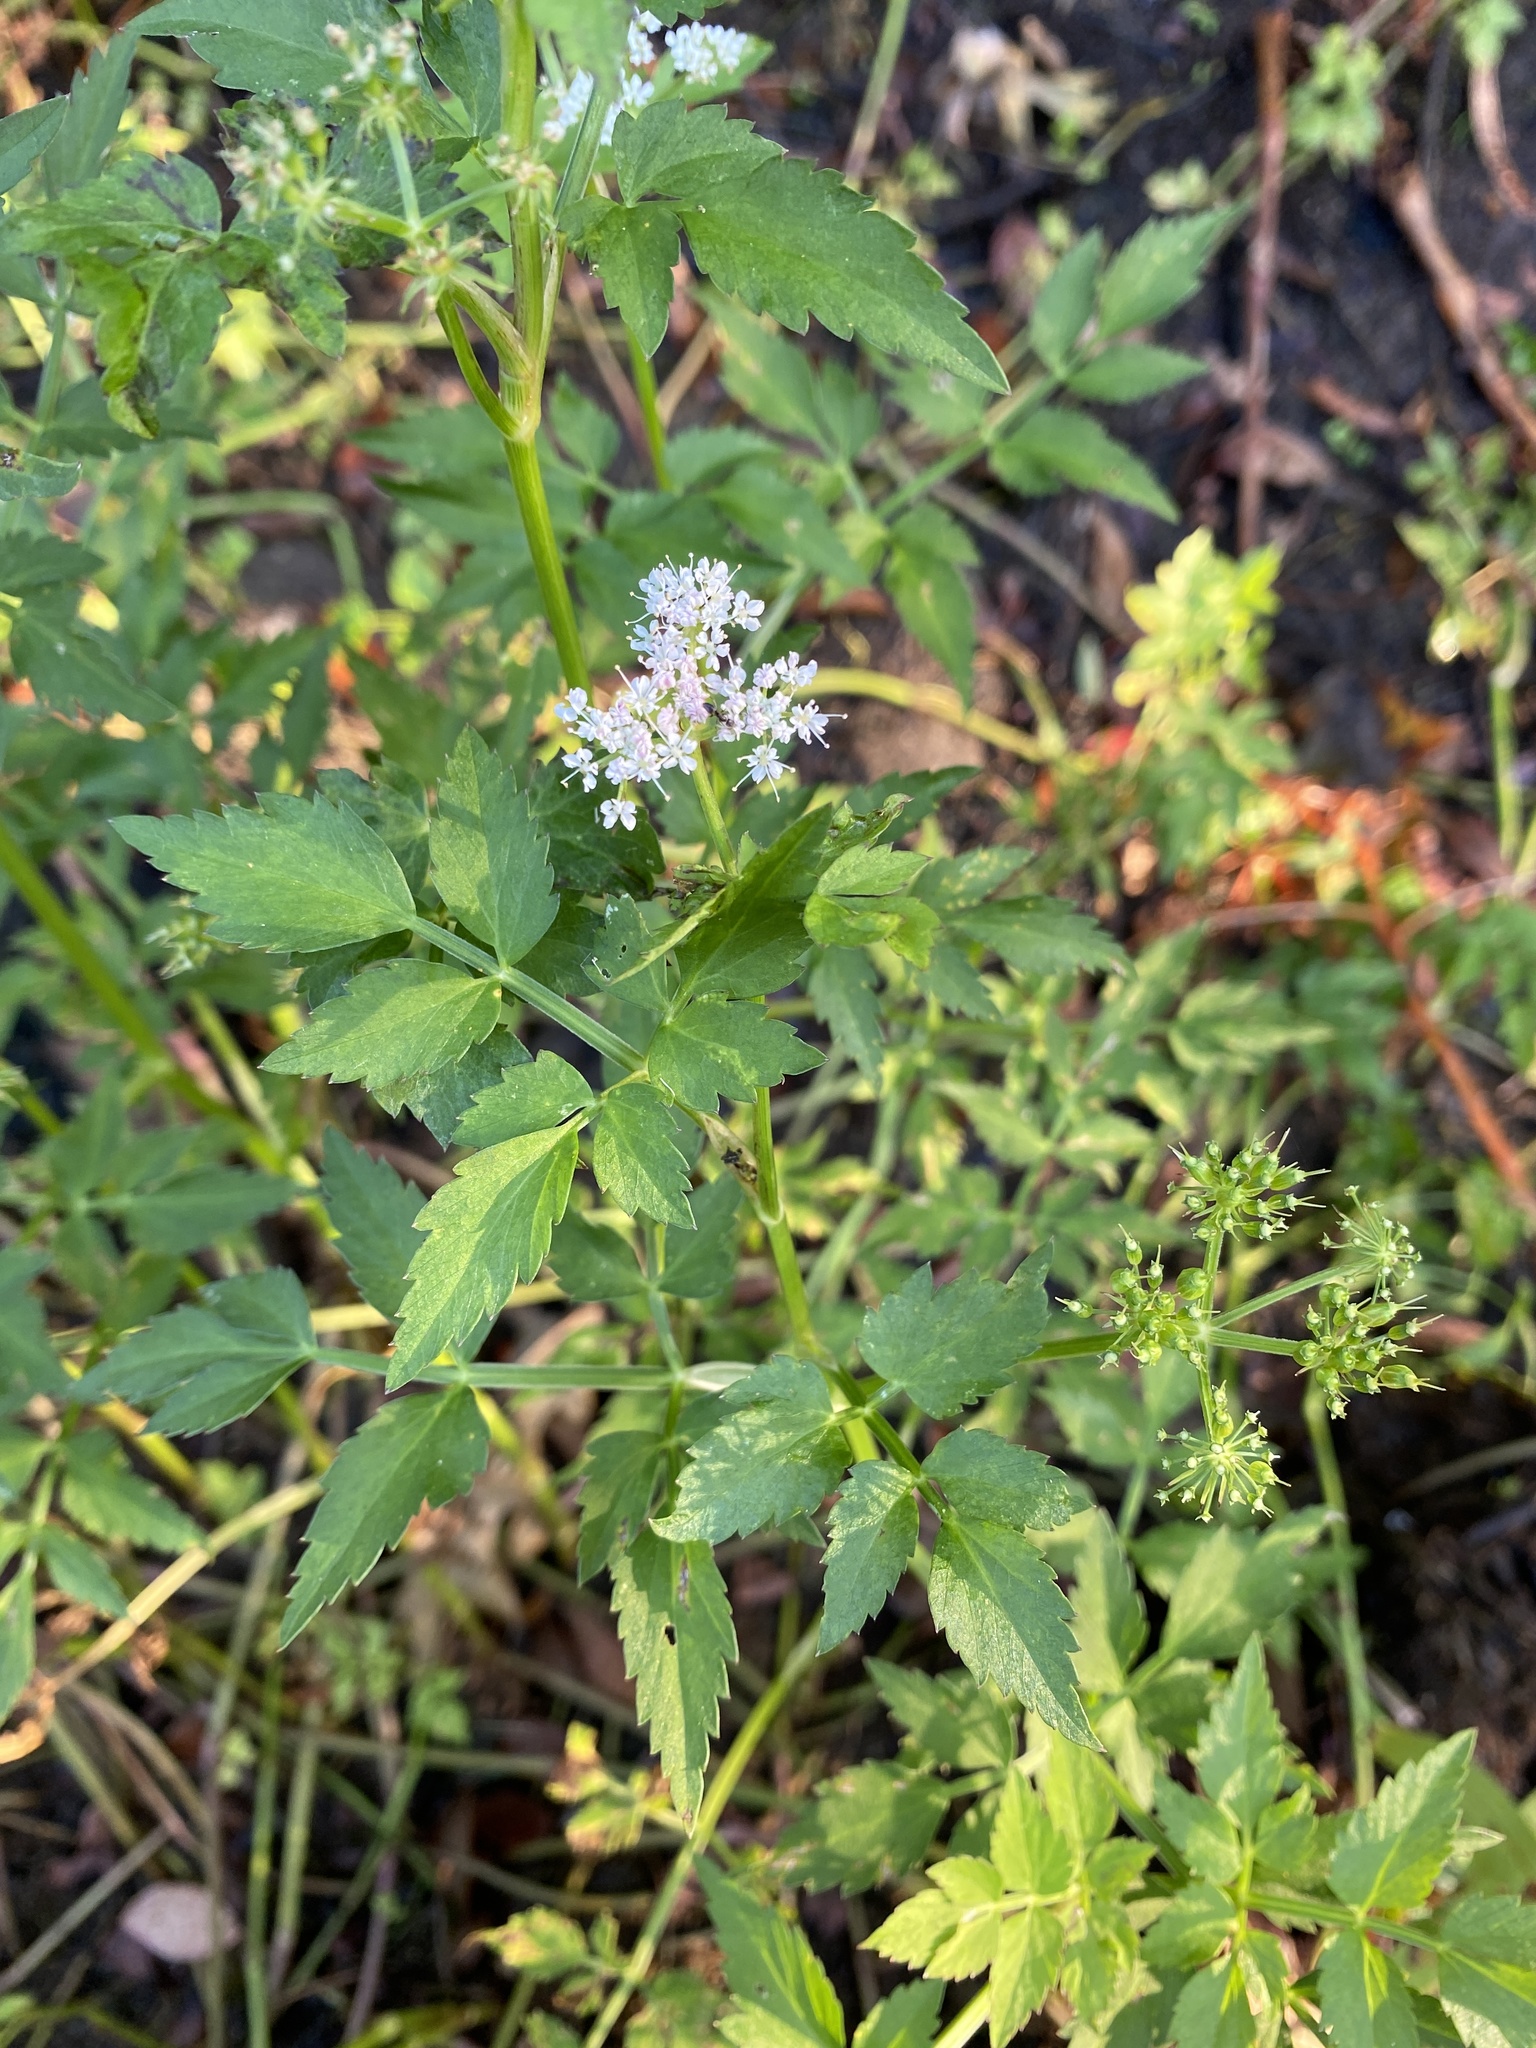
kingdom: Plantae
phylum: Tracheophyta
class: Magnoliopsida
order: Apiales
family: Apiaceae
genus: Oenanthe
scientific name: Oenanthe javanica
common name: Java water-dropwort
